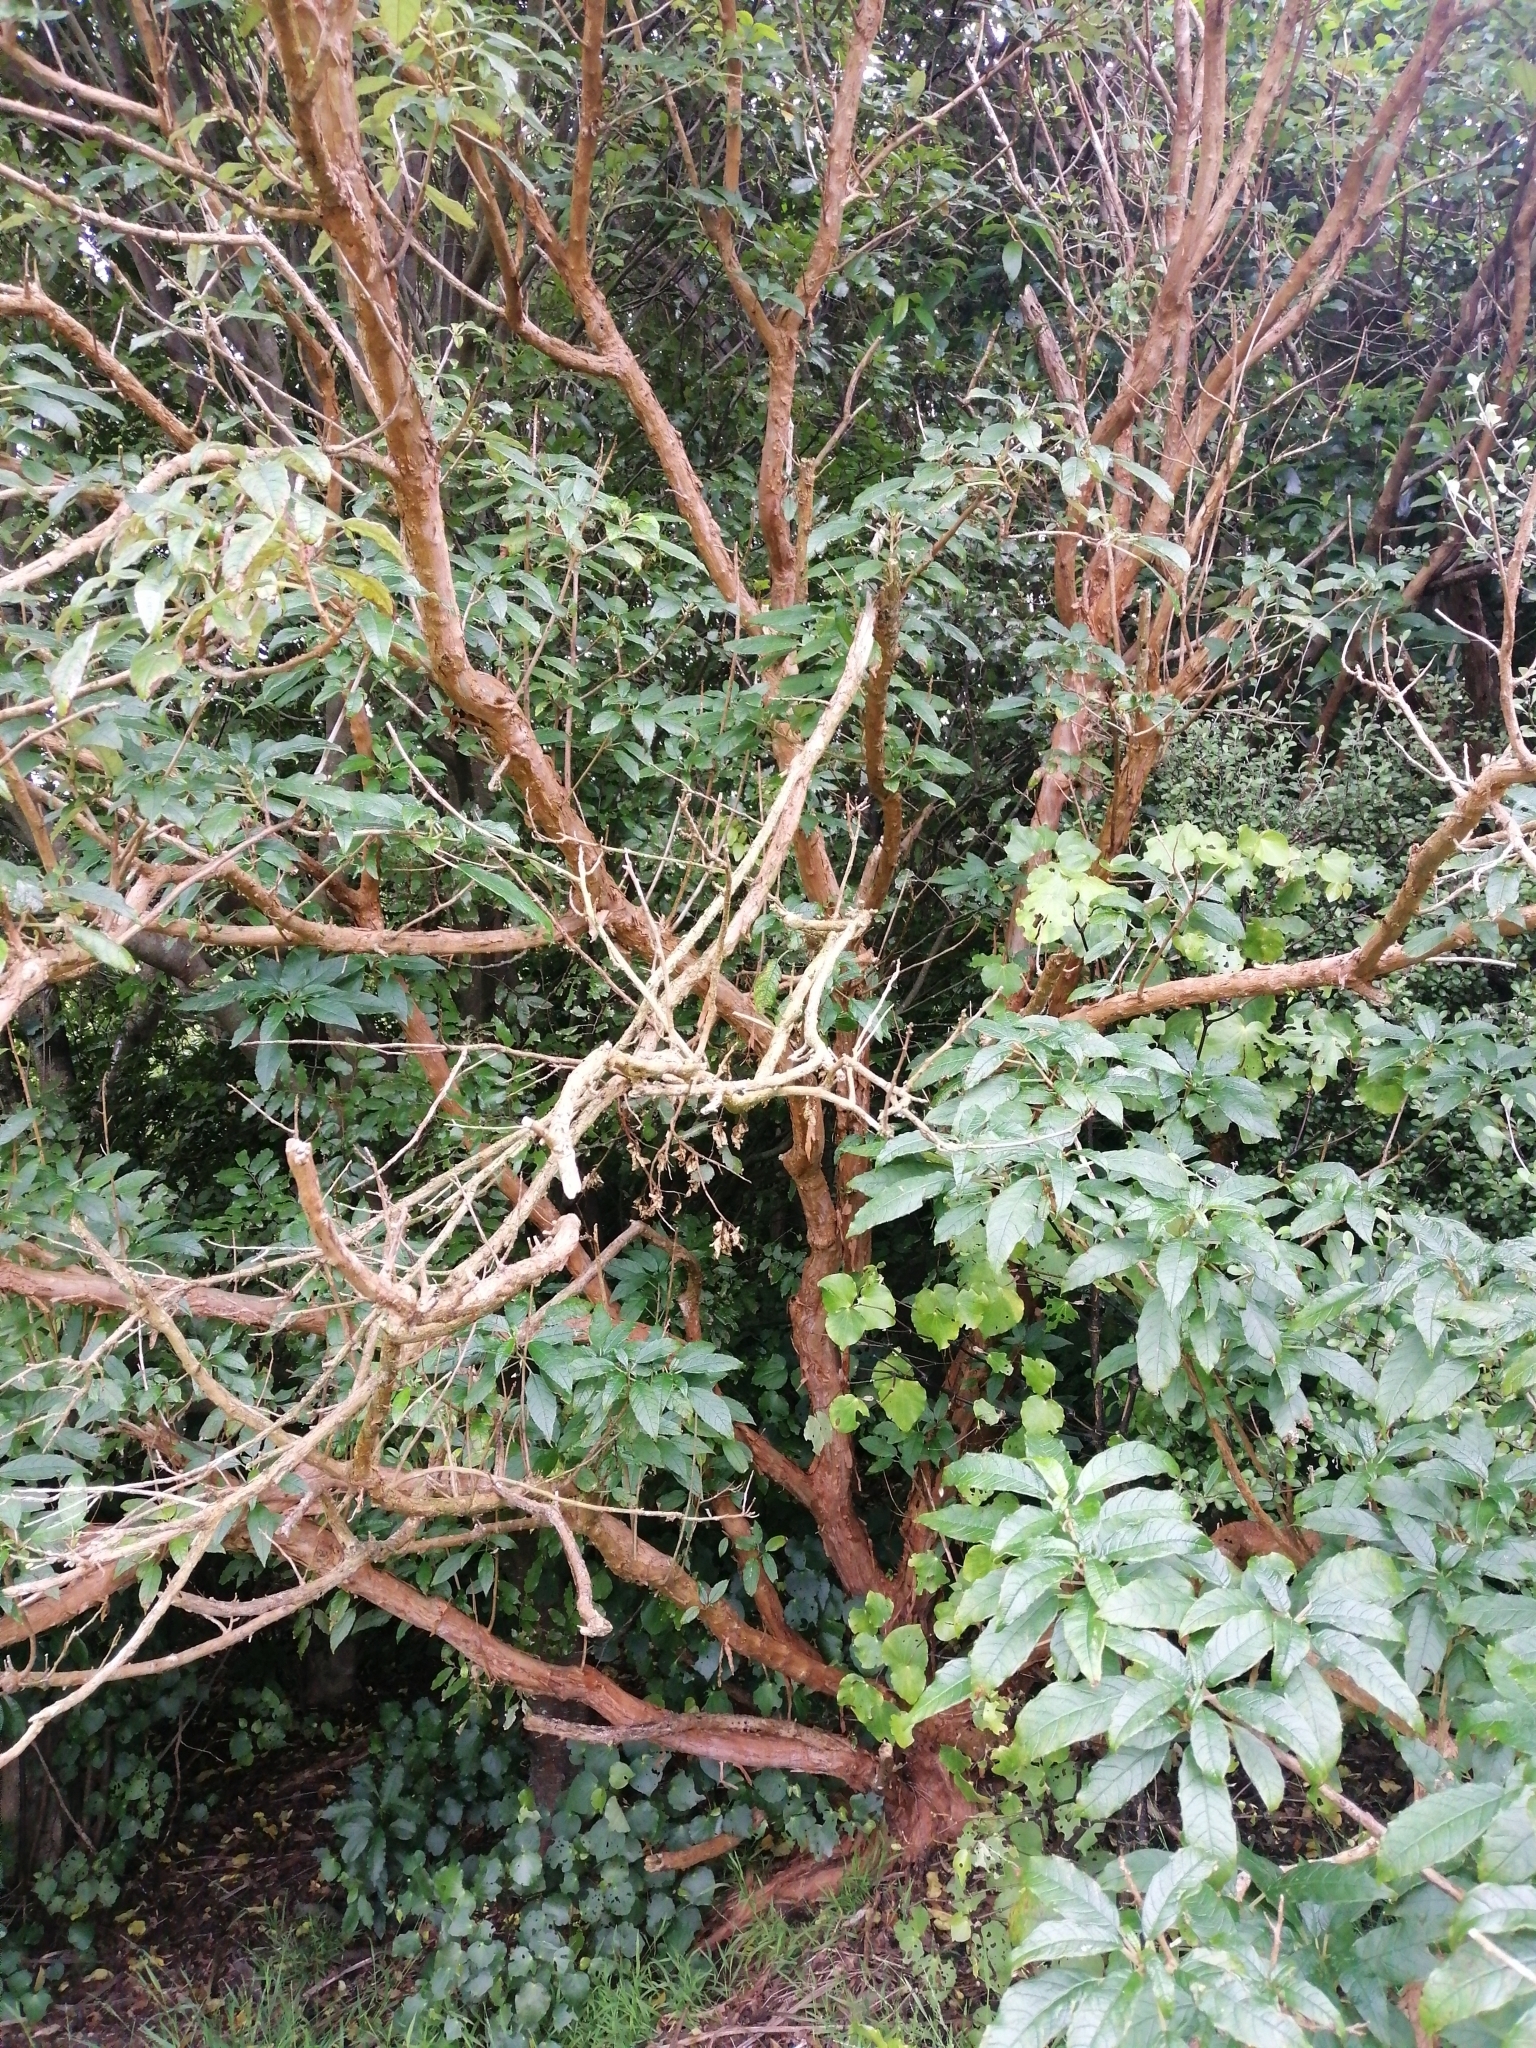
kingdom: Plantae
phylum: Tracheophyta
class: Magnoliopsida
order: Myrtales
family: Onagraceae
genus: Fuchsia
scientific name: Fuchsia excorticata
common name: Tree fuchsia
